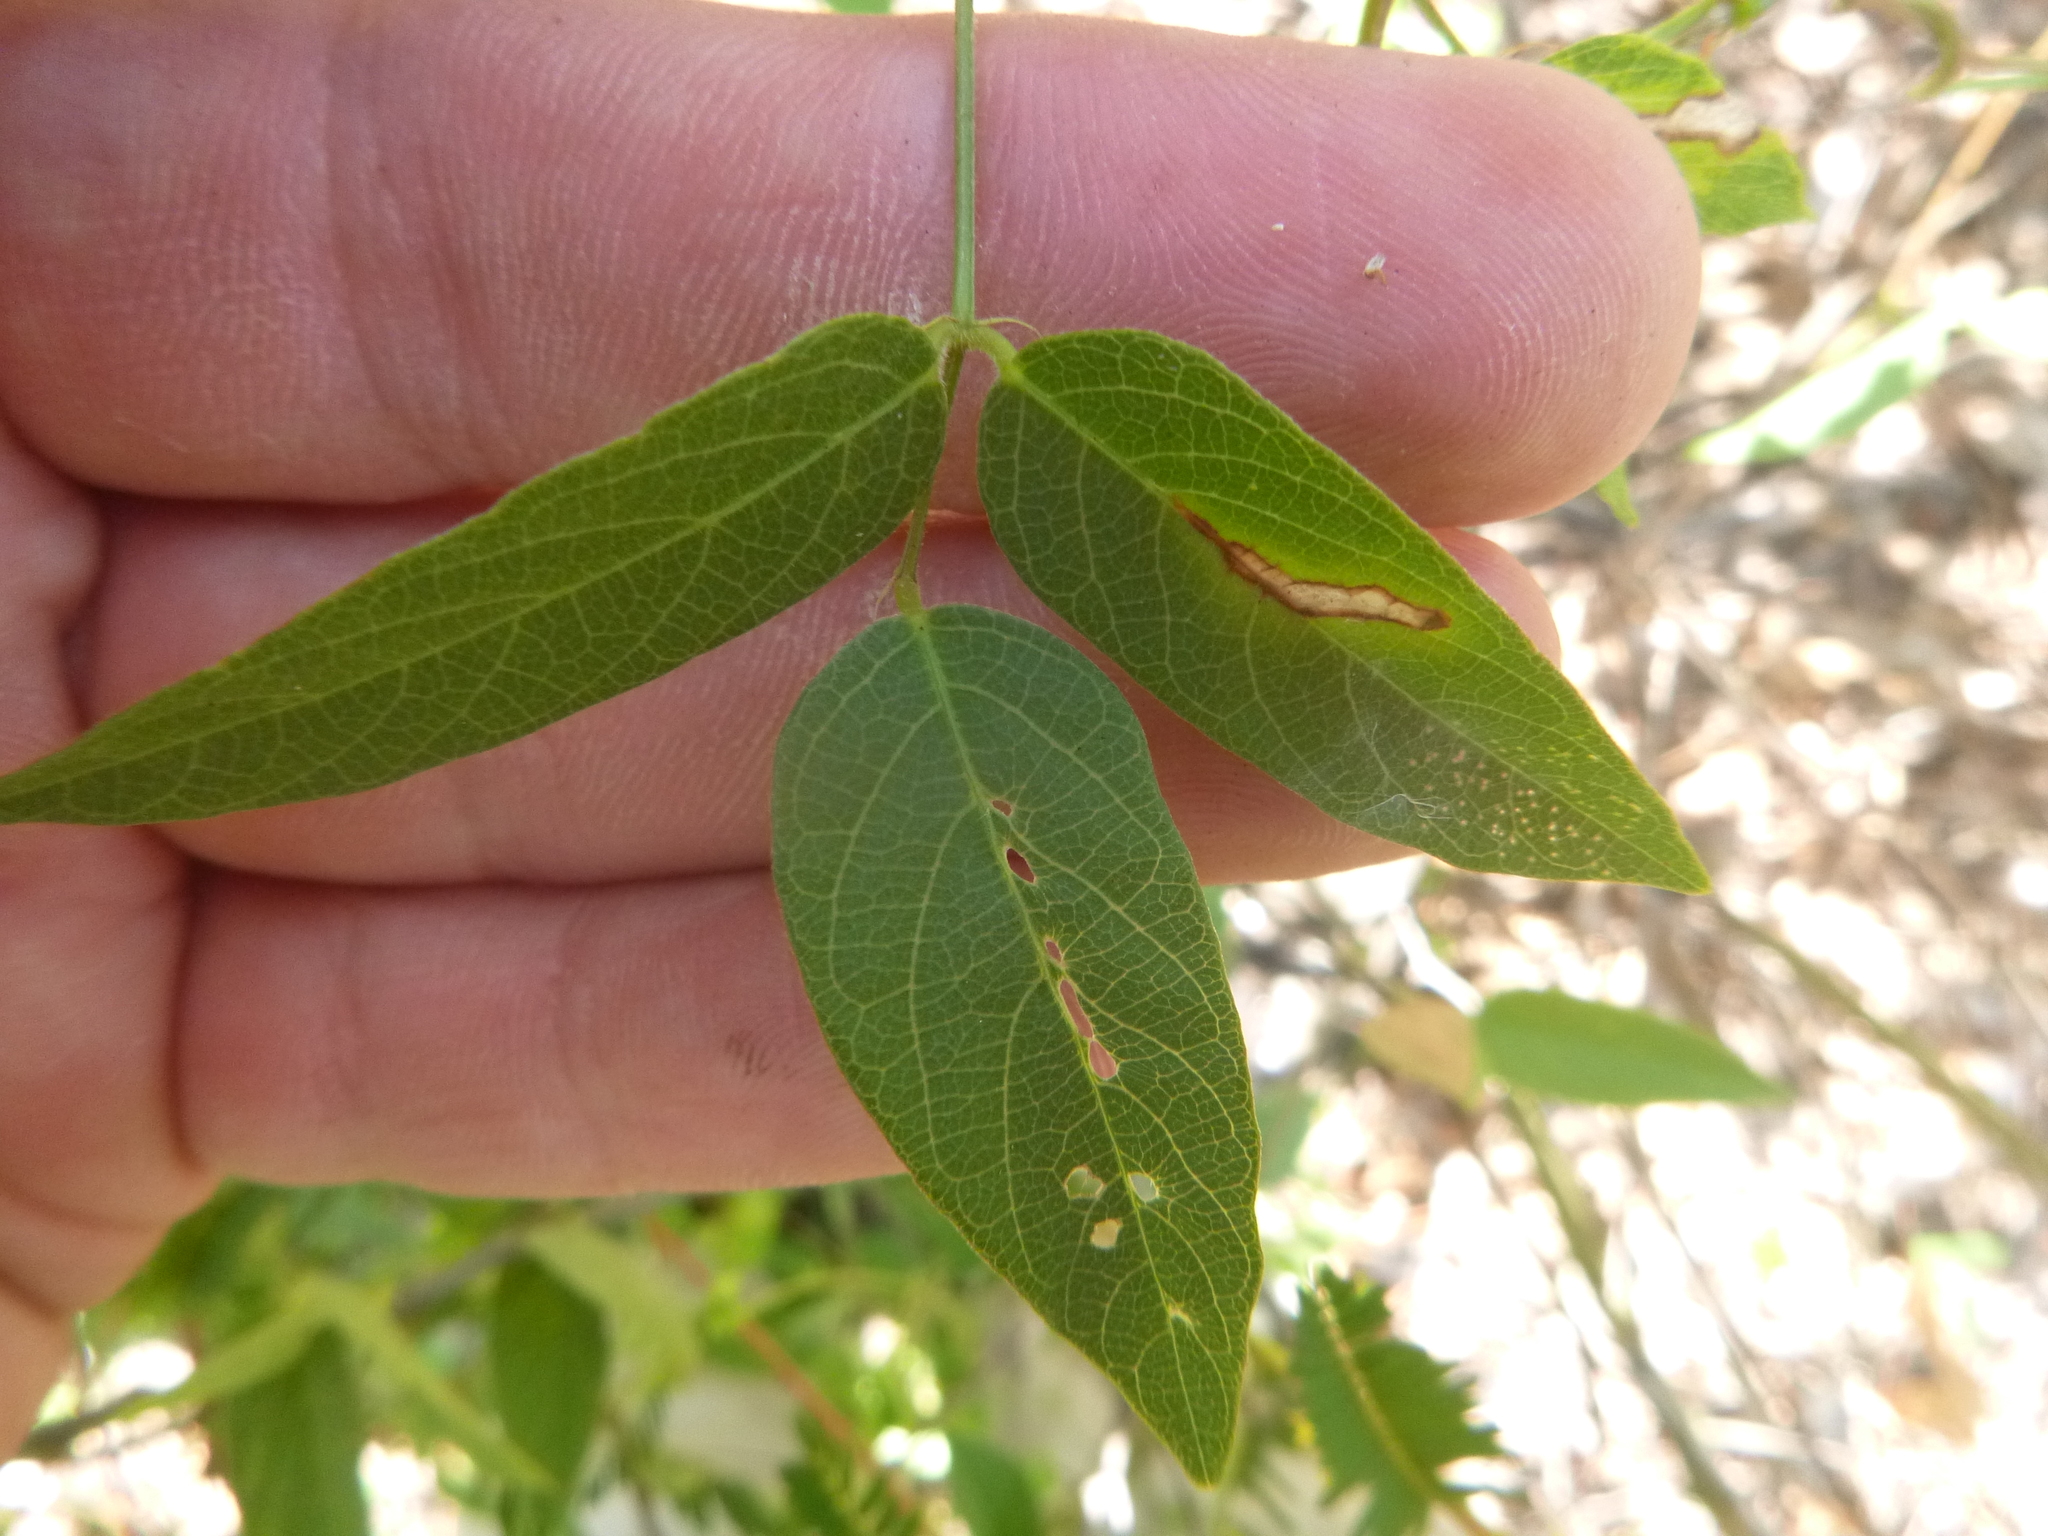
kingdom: Plantae
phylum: Tracheophyta
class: Magnoliopsida
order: Fabales
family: Fabaceae
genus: Centrosema
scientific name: Centrosema virginianum
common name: Butterfly-pea
